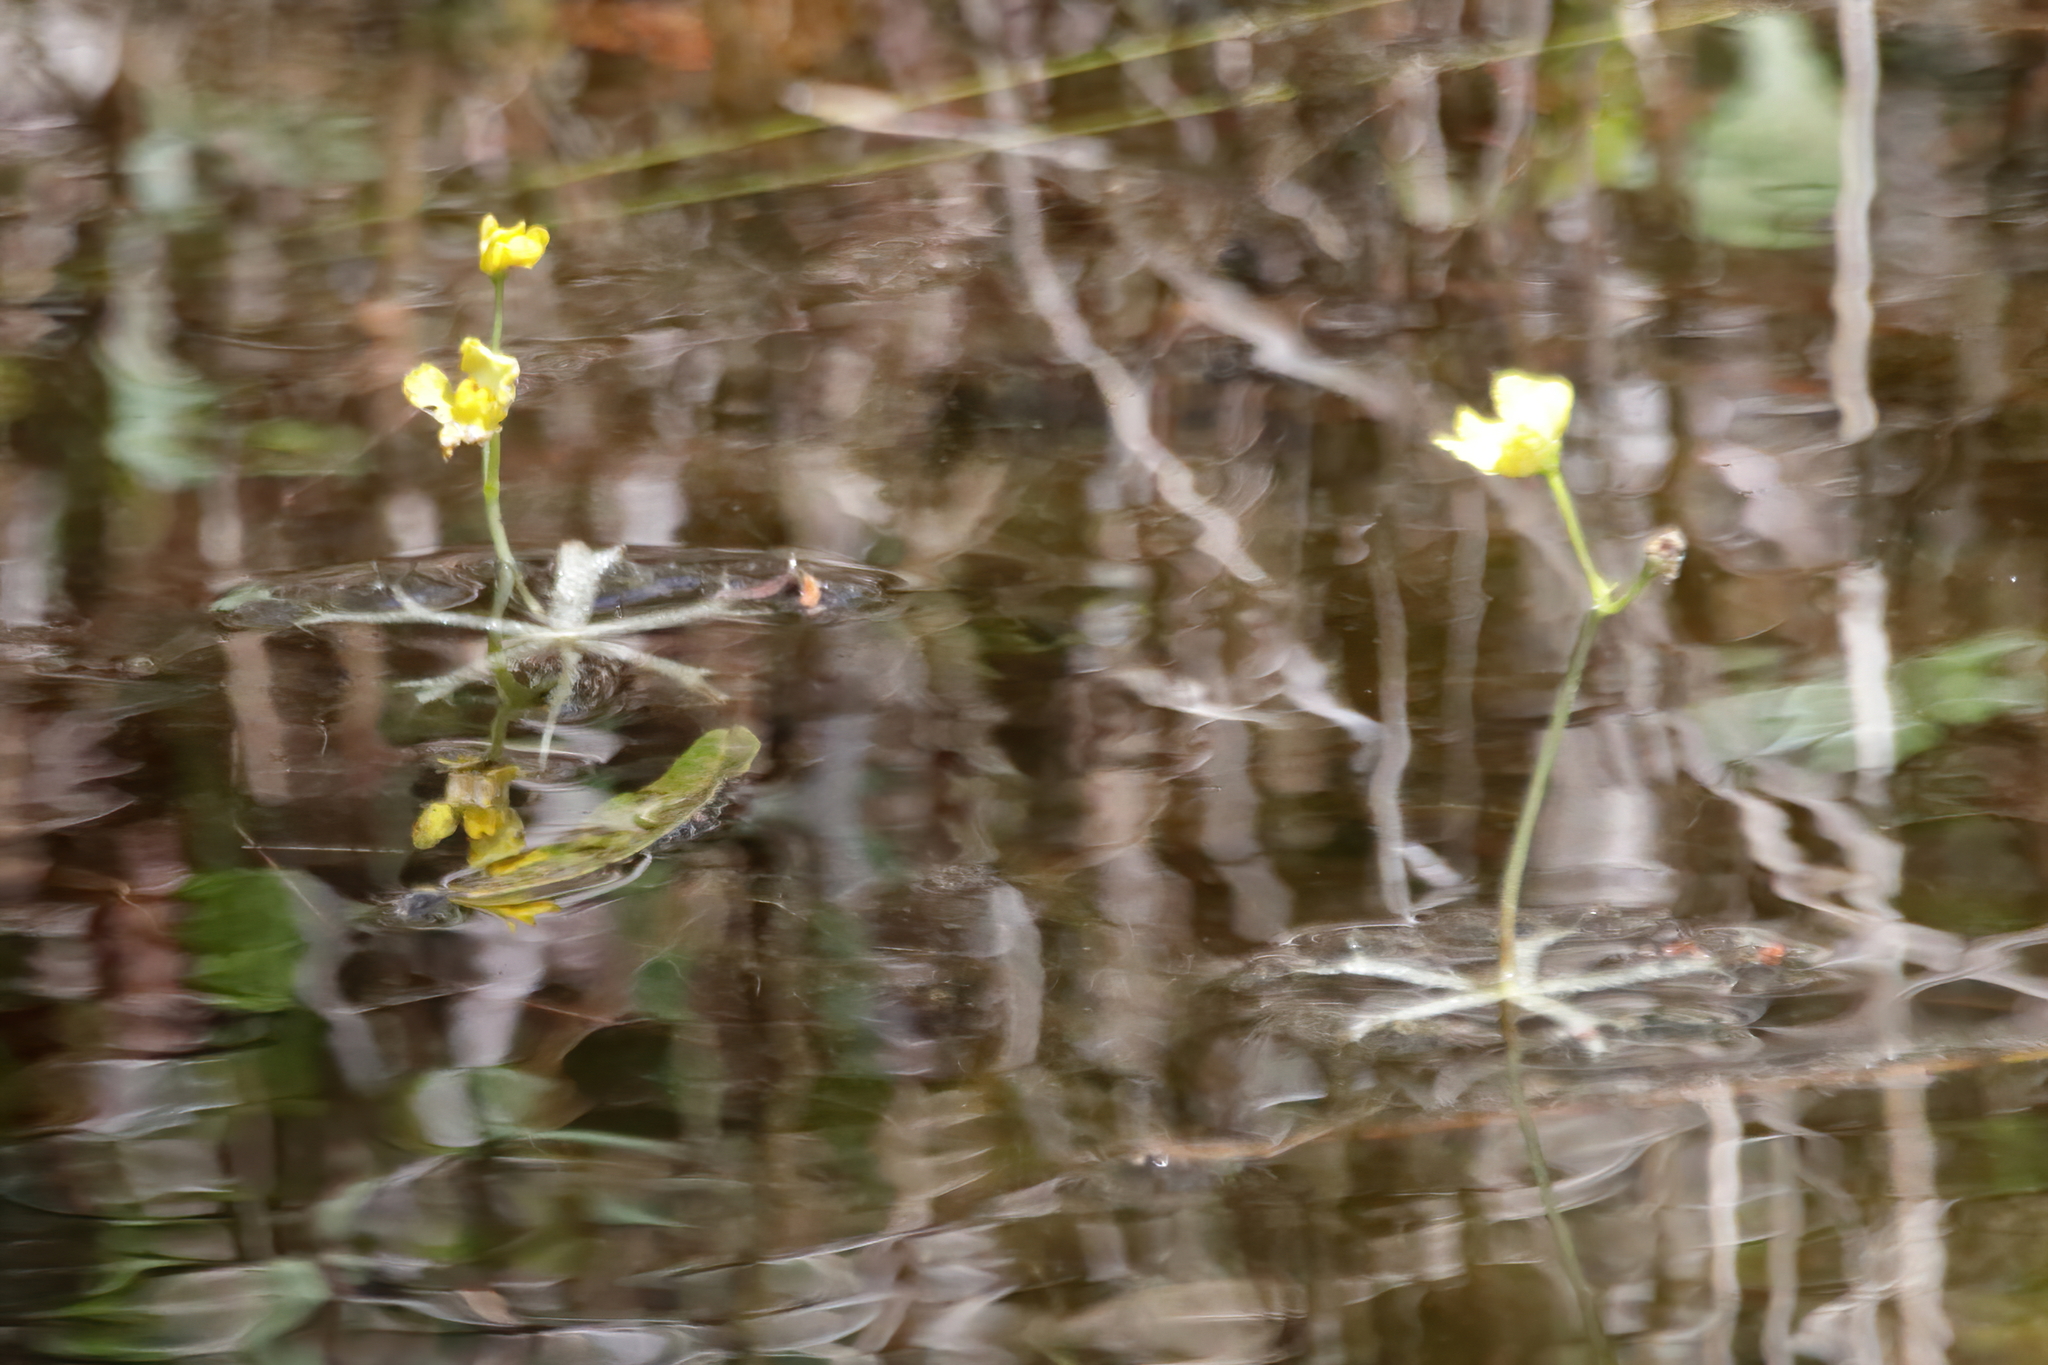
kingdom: Plantae
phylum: Tracheophyta
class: Magnoliopsida
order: Lamiales
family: Lentibulariaceae
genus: Utricularia
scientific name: Utricularia radiata
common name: Floating bladderwort
